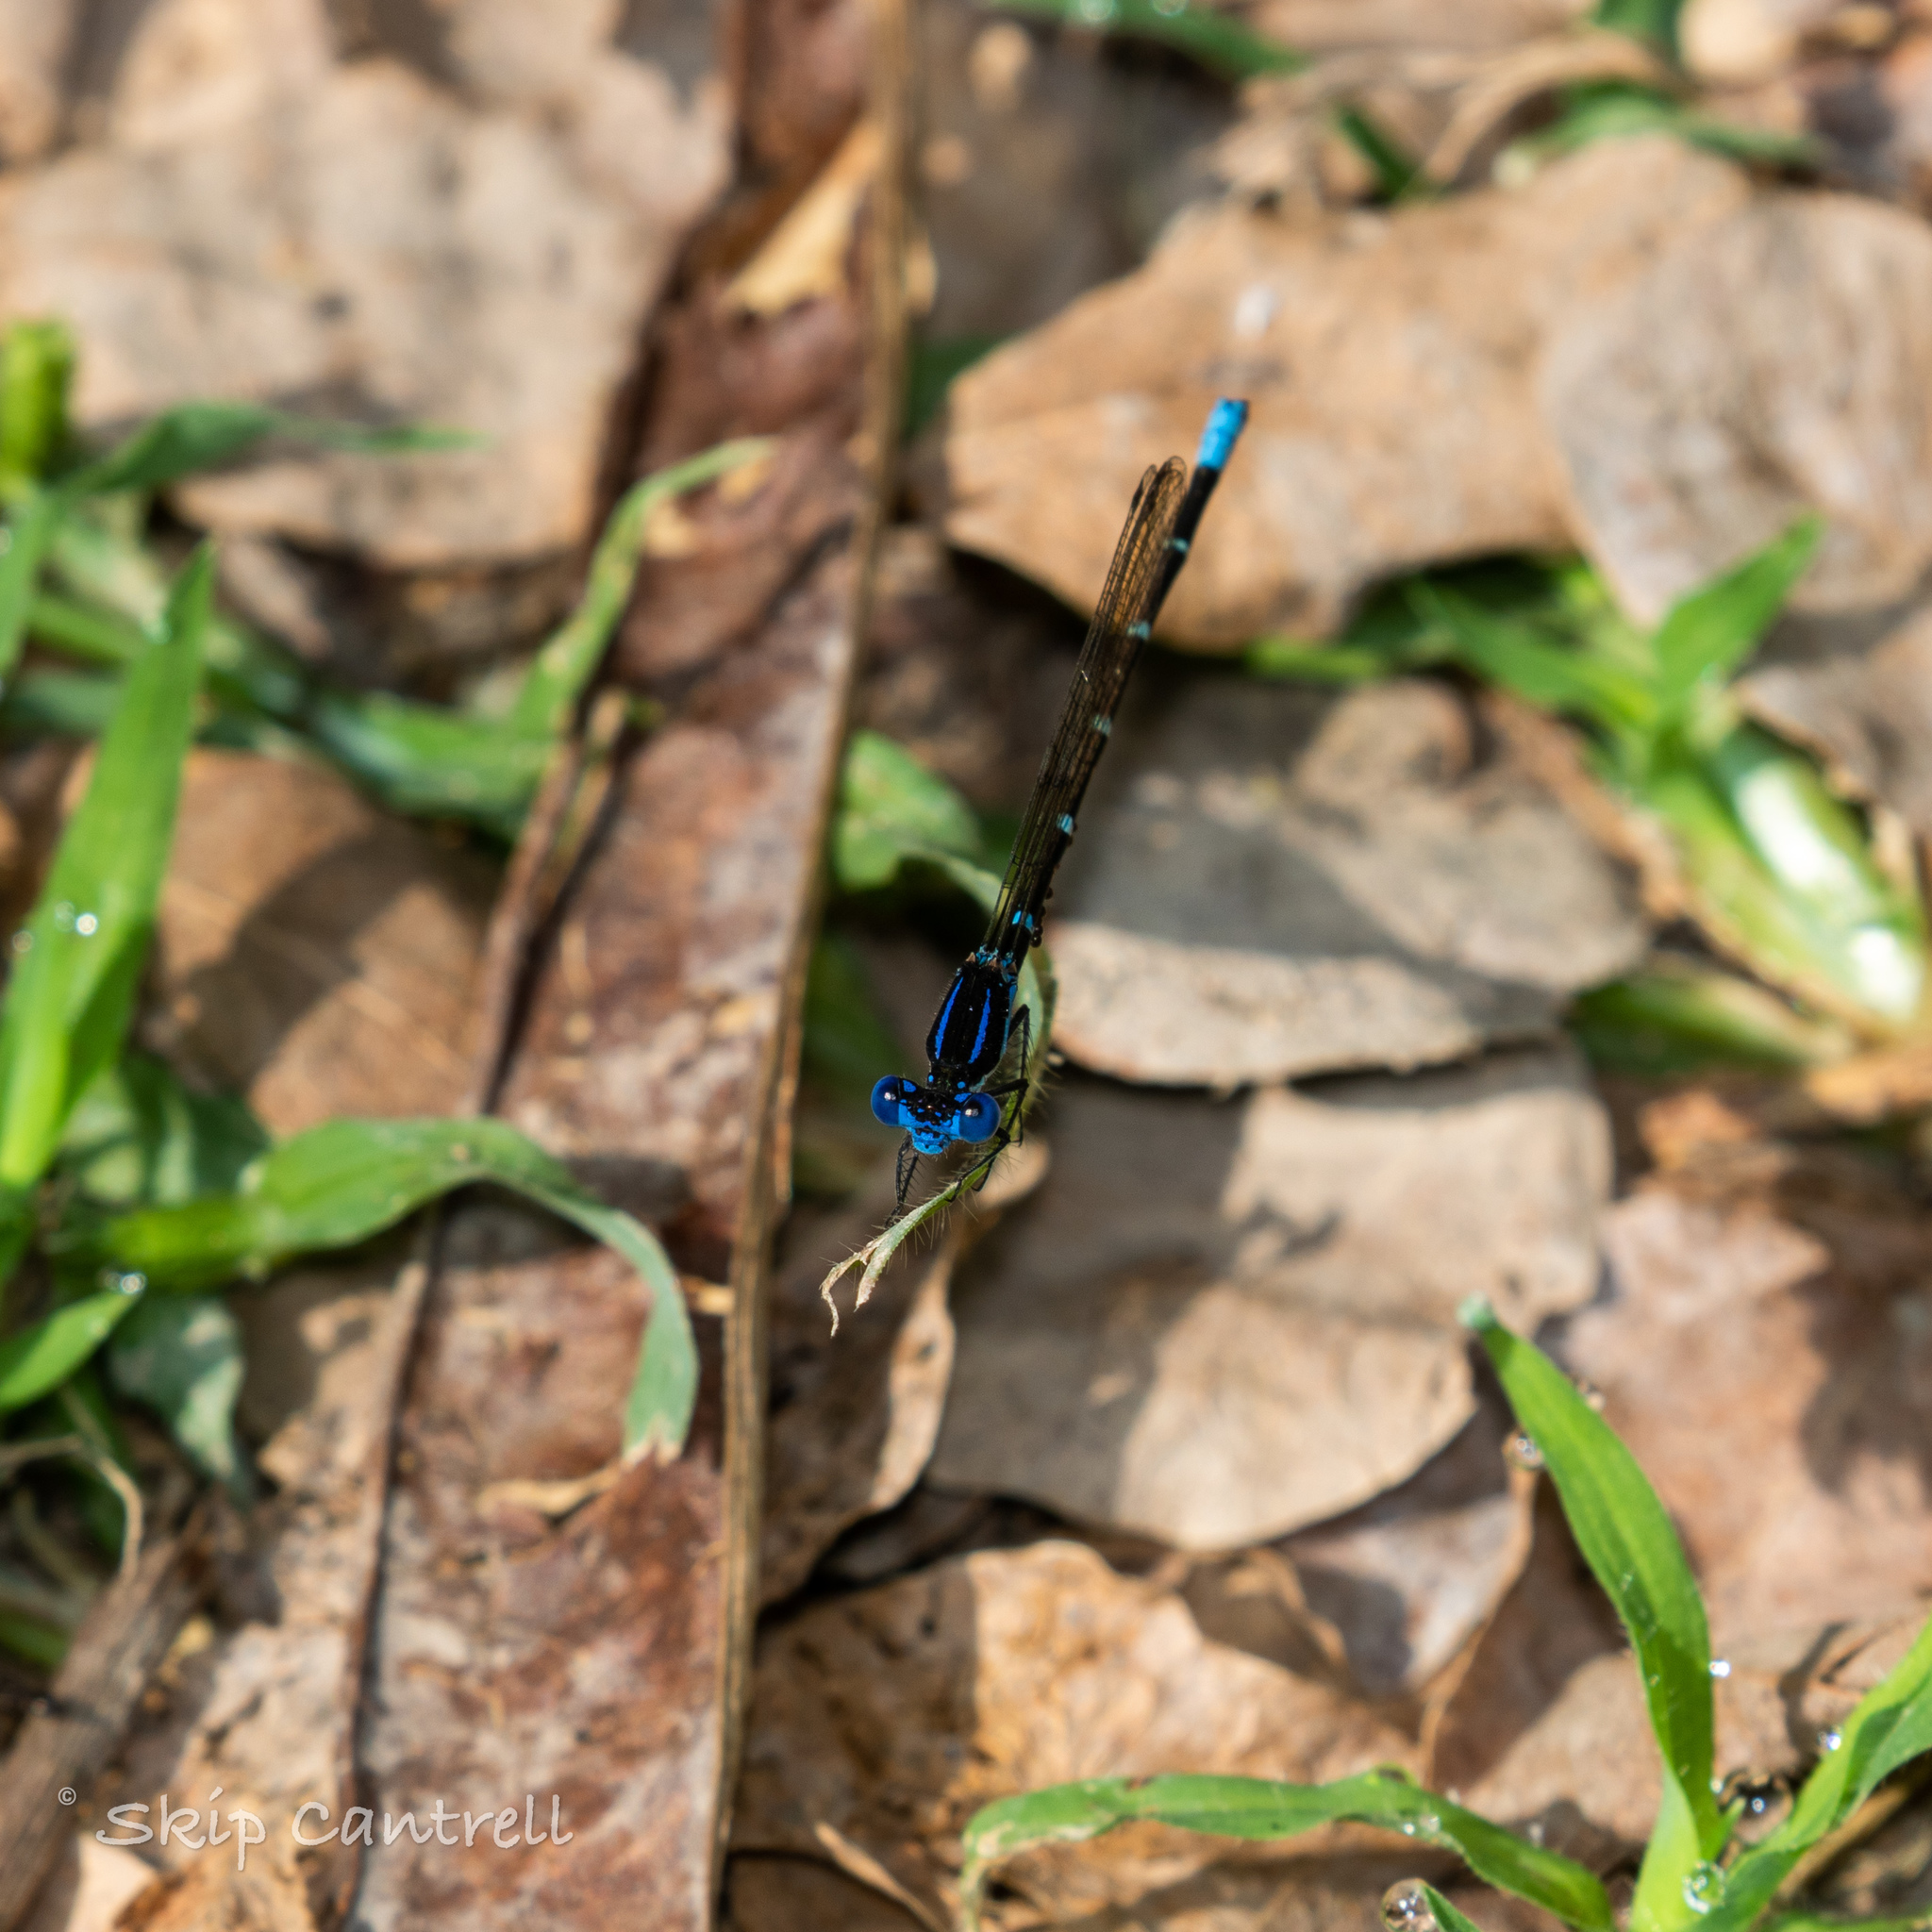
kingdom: Animalia
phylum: Arthropoda
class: Insecta
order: Odonata
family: Coenagrionidae
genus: Argia
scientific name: Argia sedula
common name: Blue-ringed dancer
